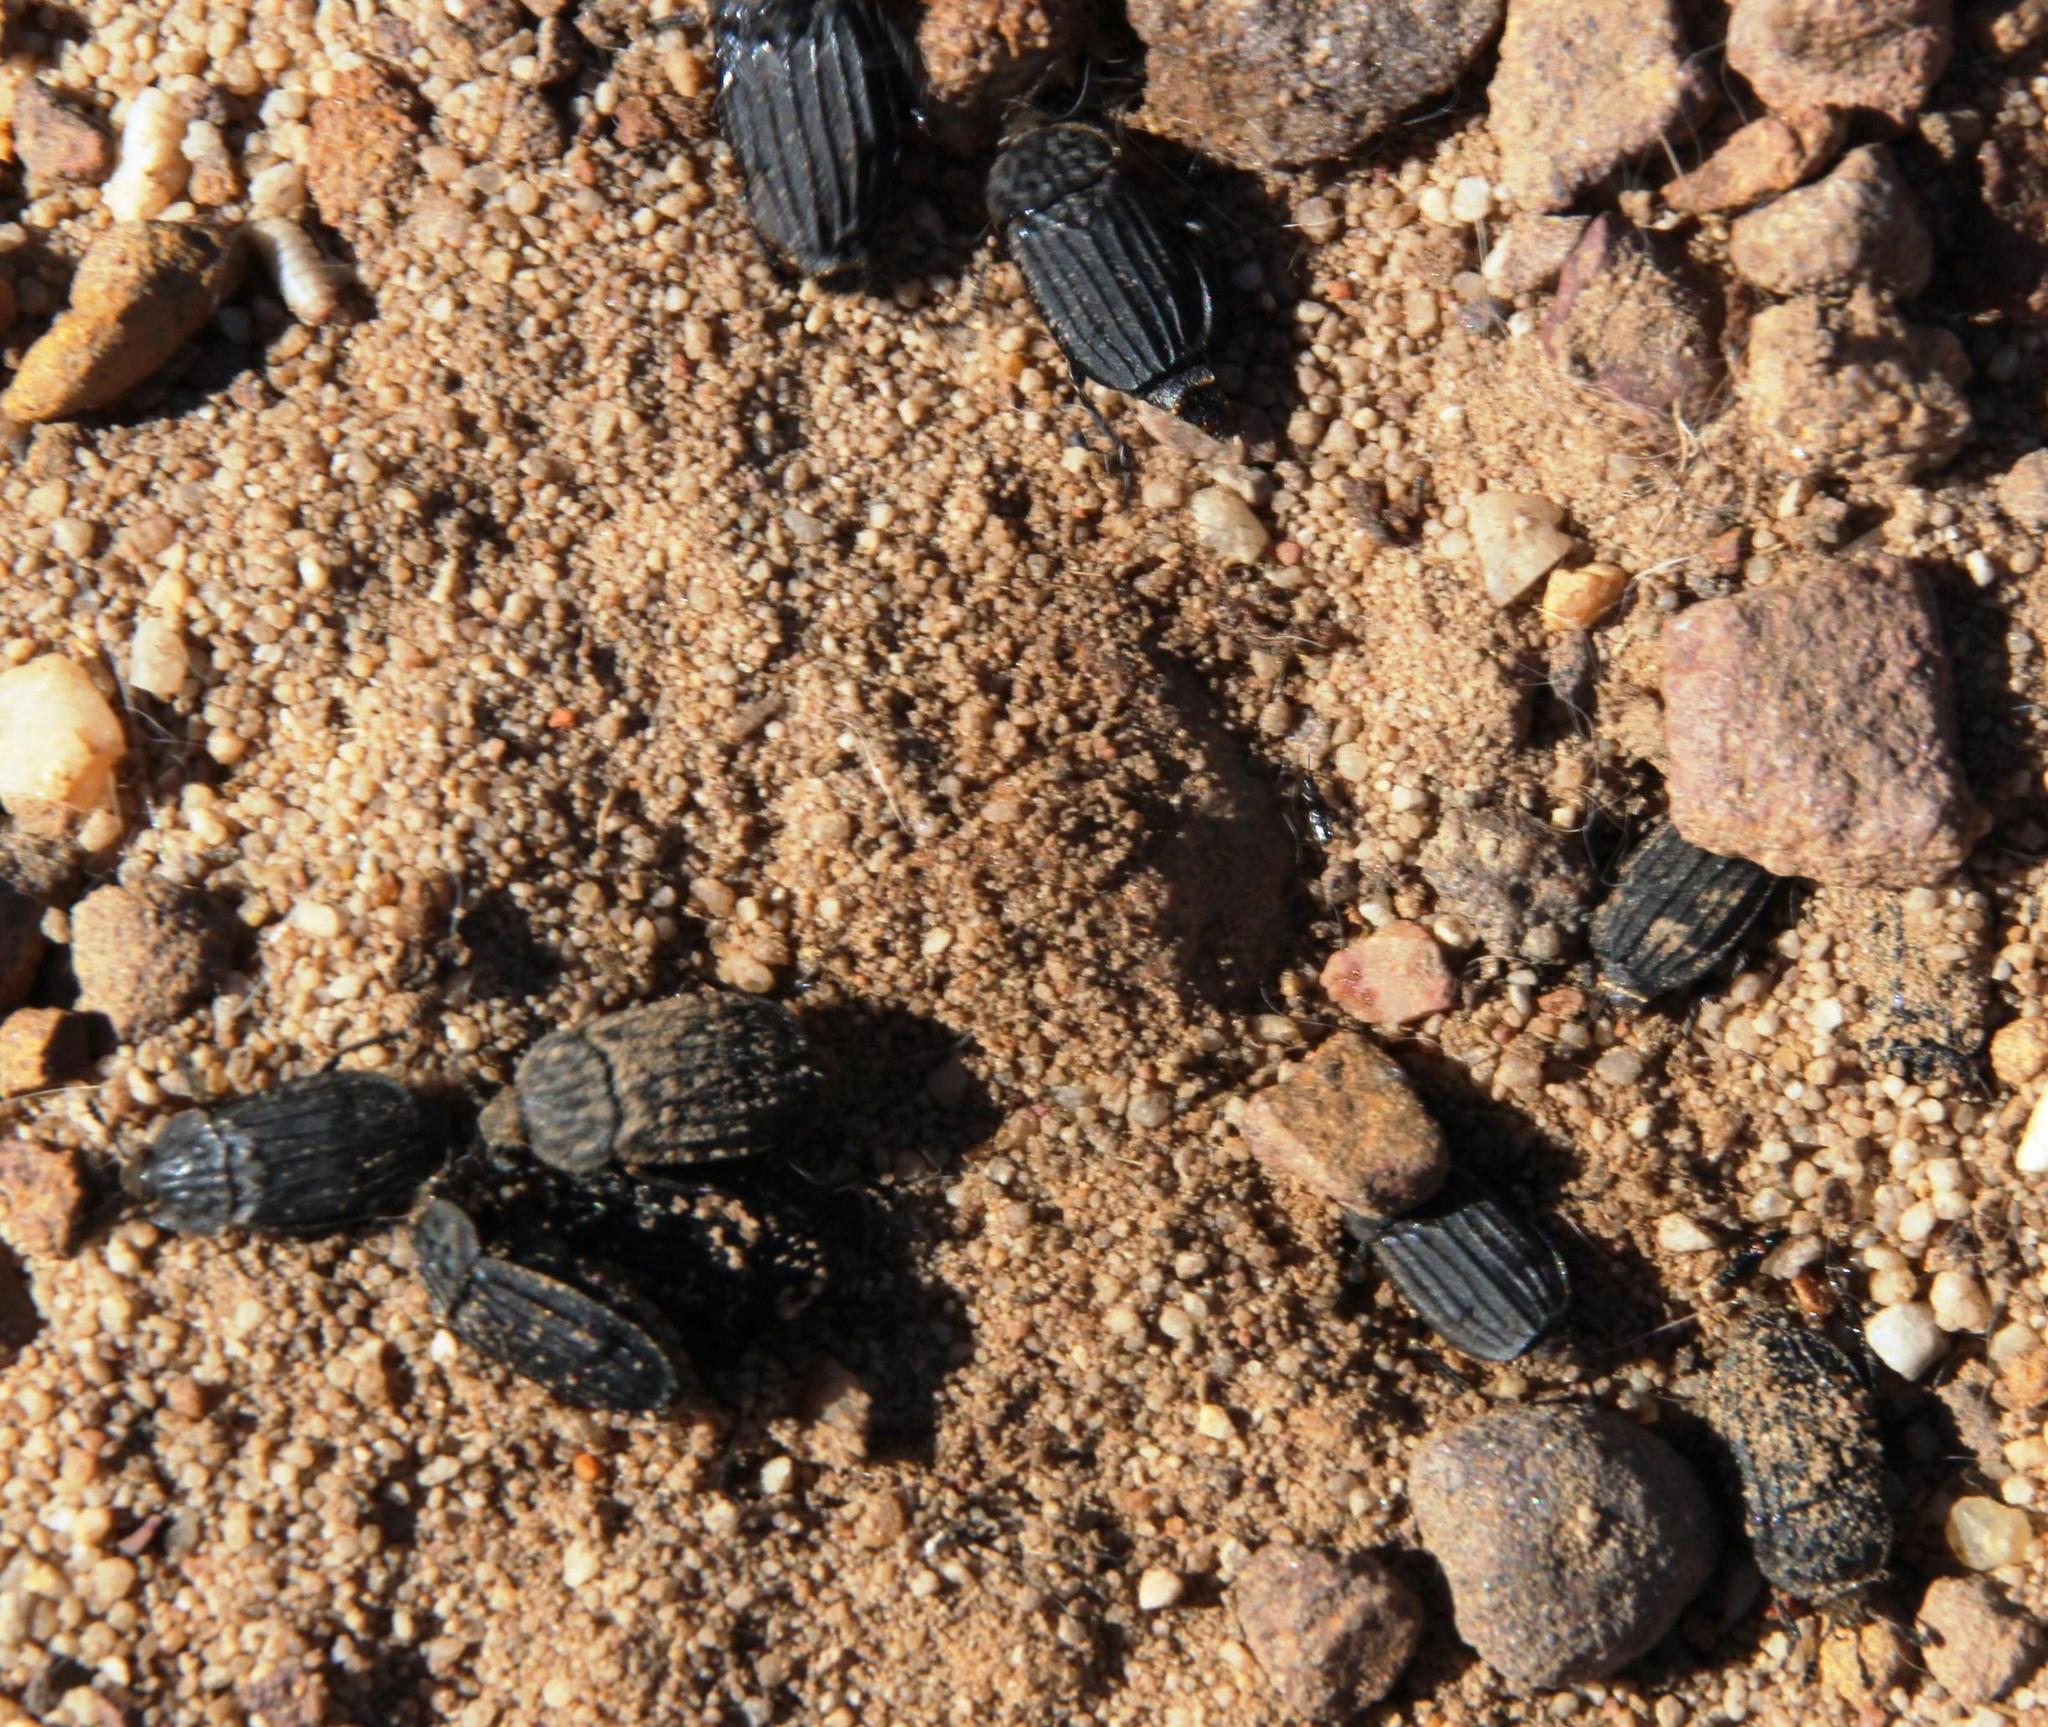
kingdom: Animalia
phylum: Arthropoda
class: Insecta
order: Coleoptera
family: Staphylinidae
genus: Thanatophilus
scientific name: Thanatophilus capensis
